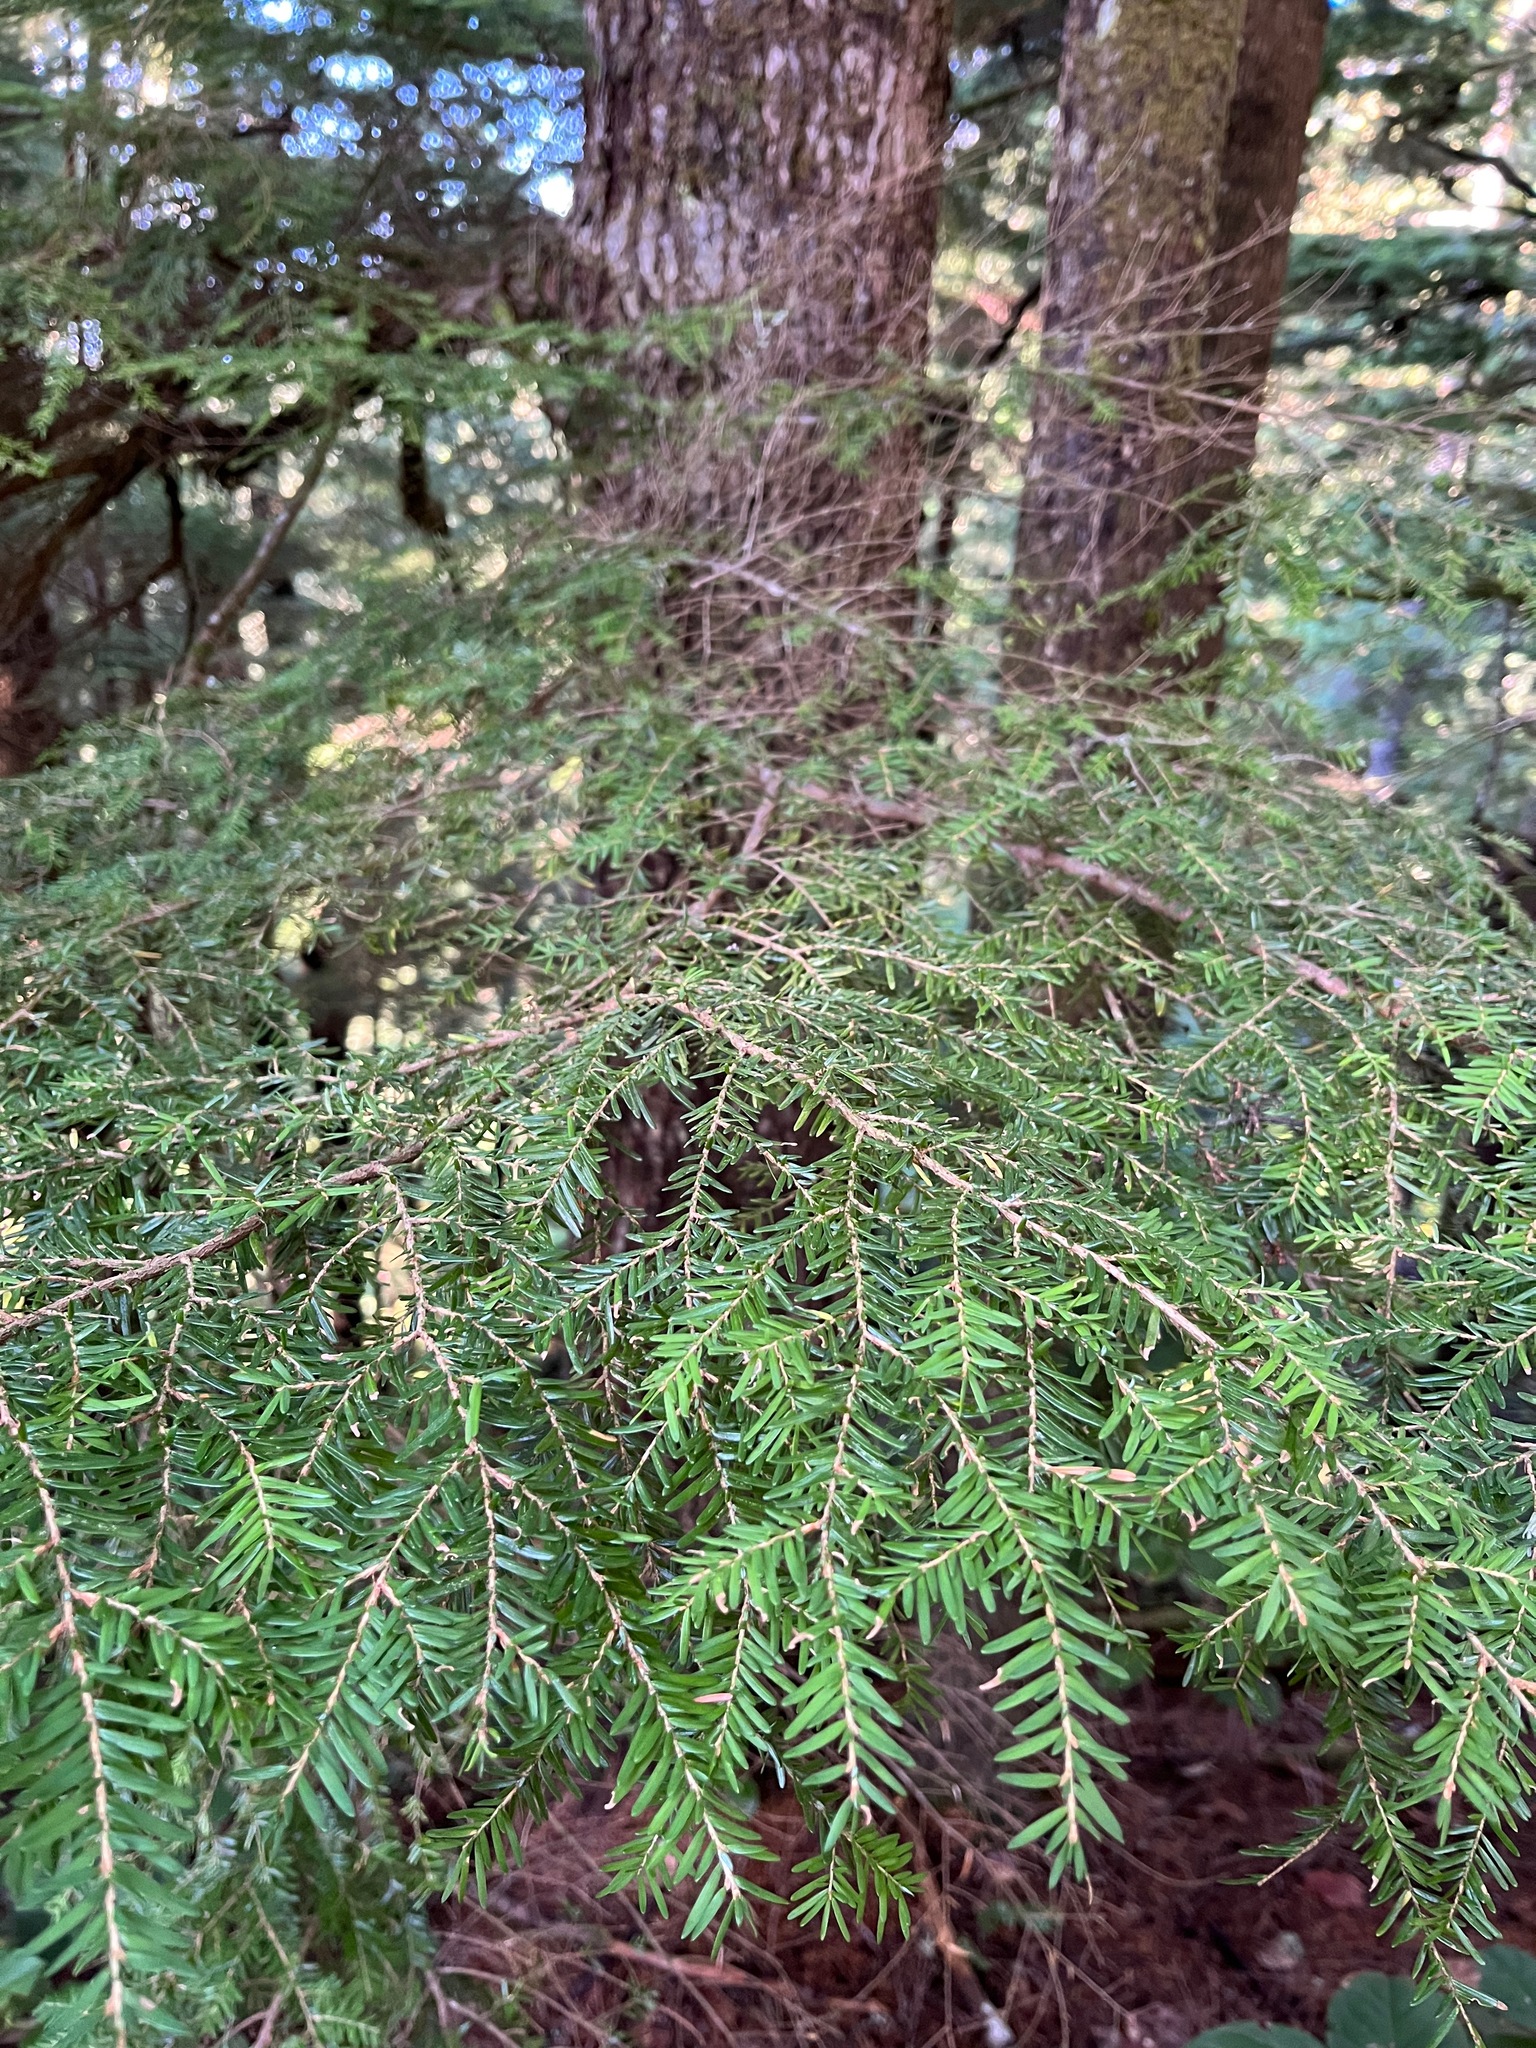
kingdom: Plantae
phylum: Tracheophyta
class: Pinopsida
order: Pinales
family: Pinaceae
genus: Tsuga
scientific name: Tsuga heterophylla
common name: Western hemlock
